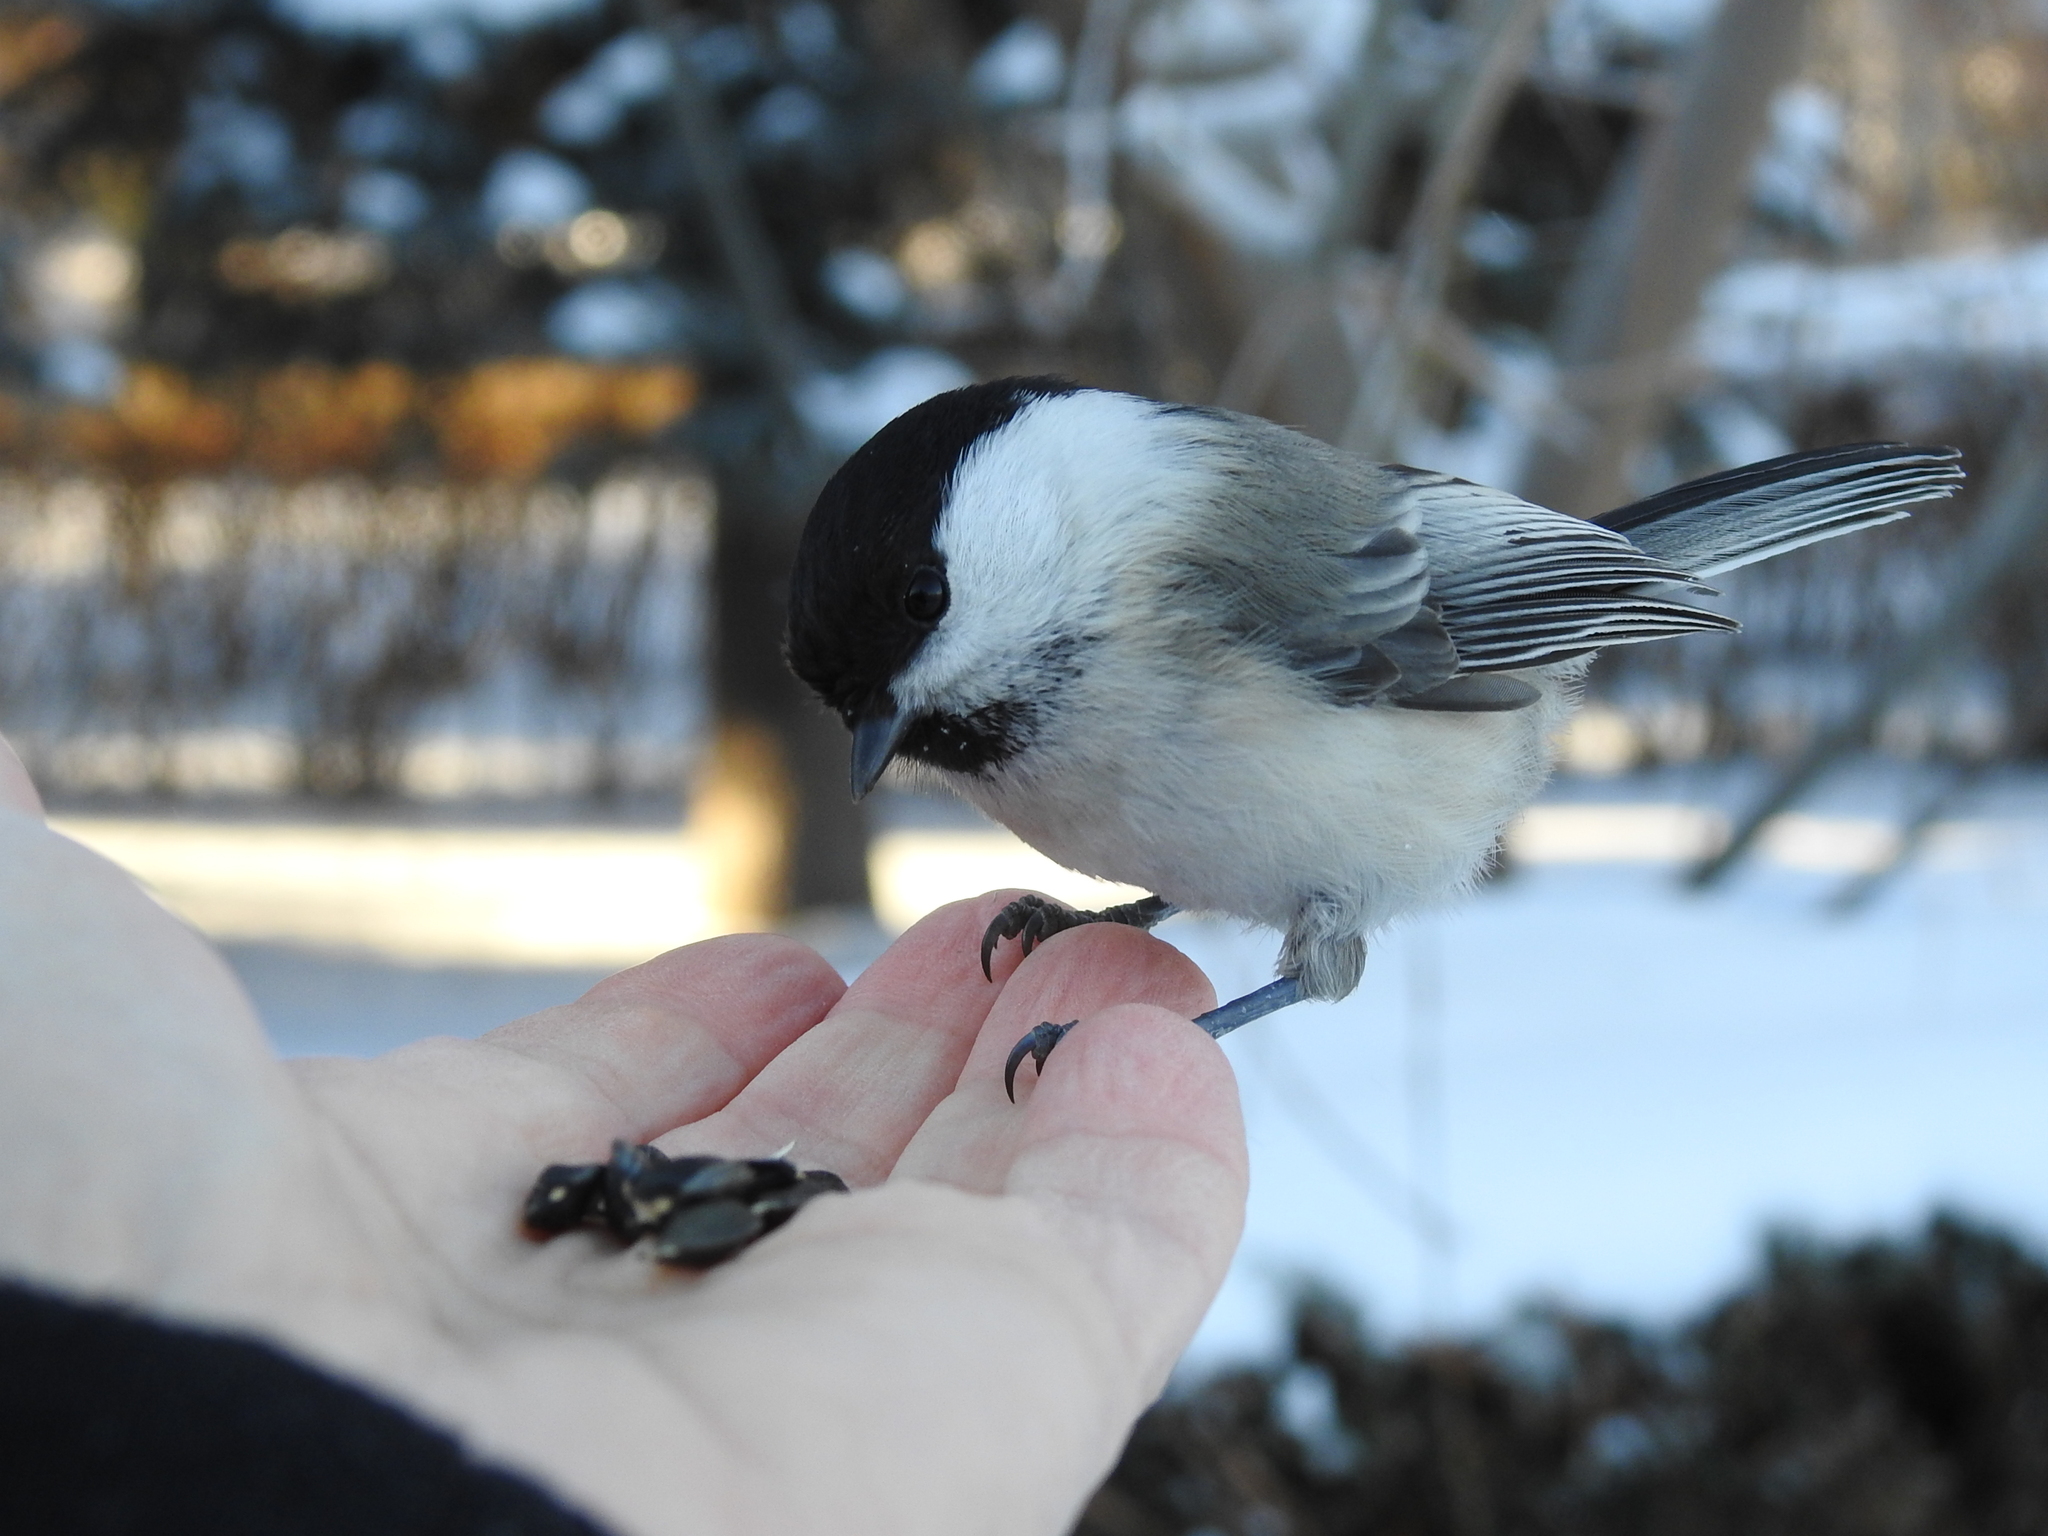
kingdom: Animalia
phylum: Chordata
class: Aves
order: Passeriformes
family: Paridae
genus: Poecile
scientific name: Poecile montanus
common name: Willow tit
